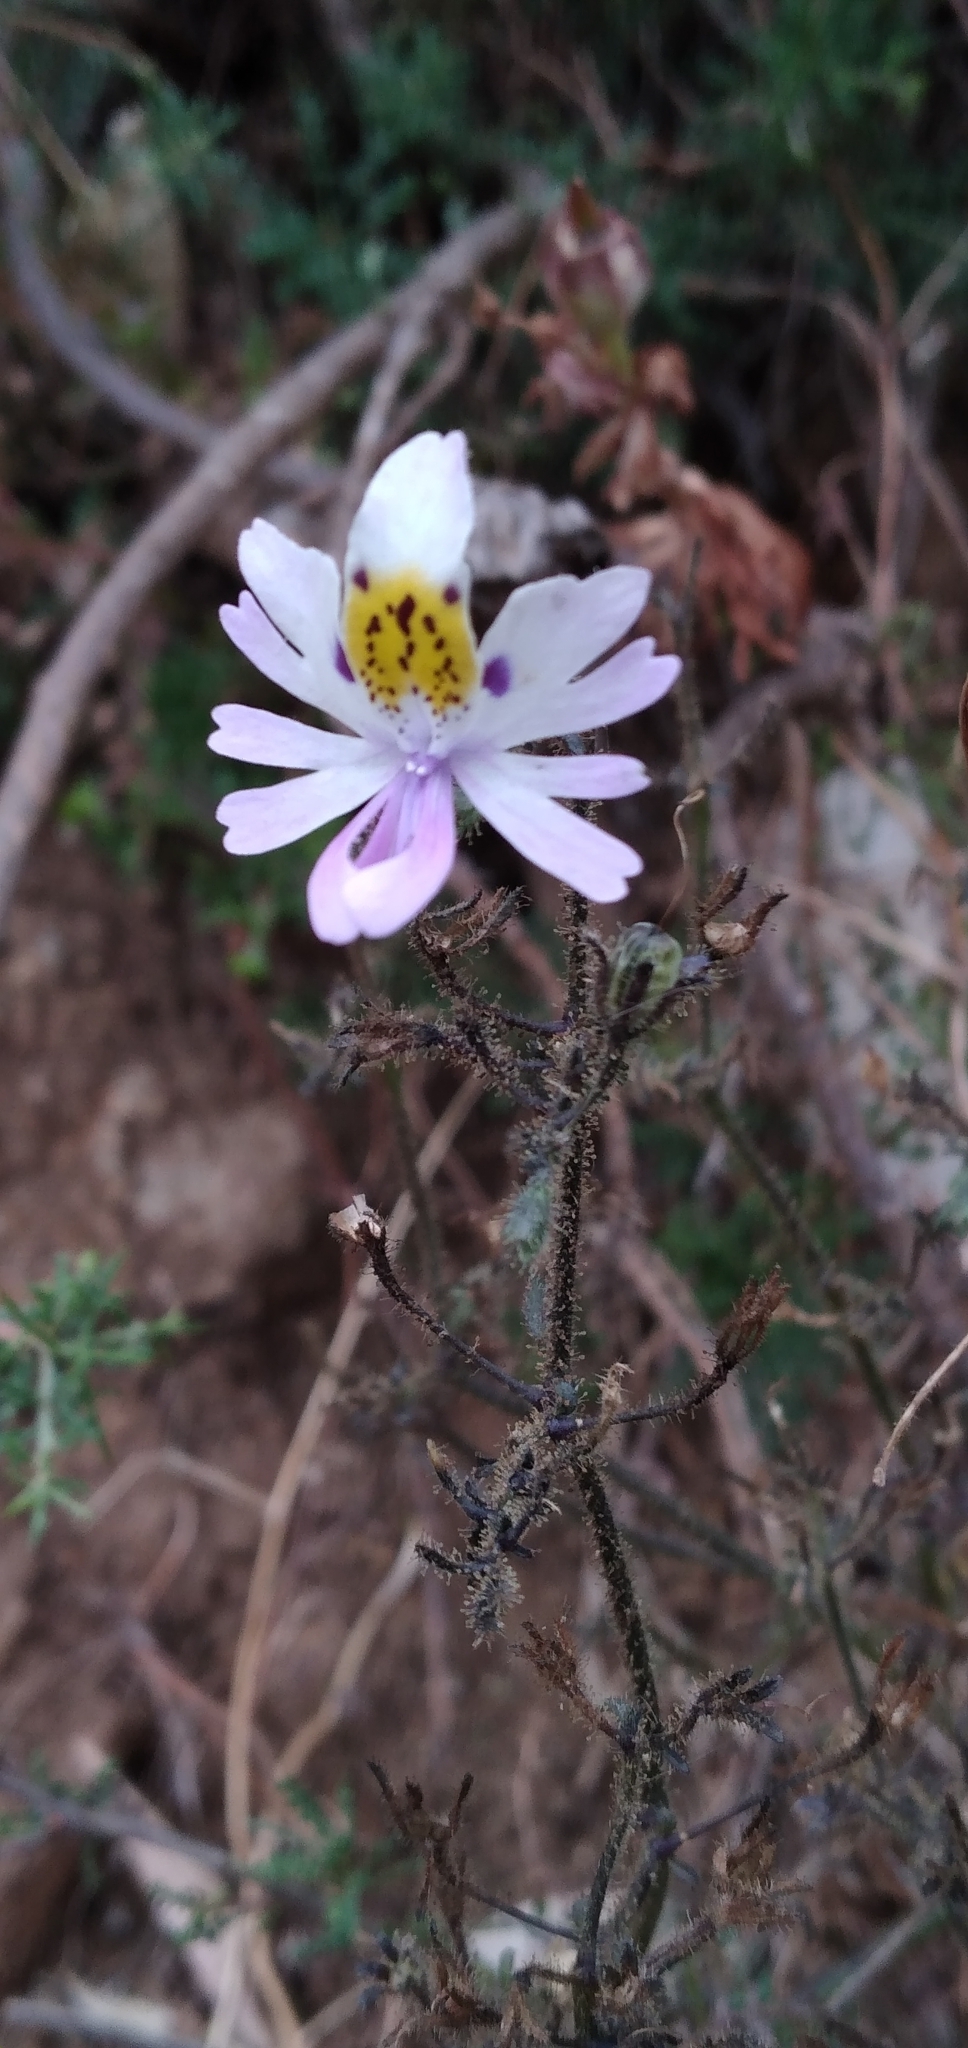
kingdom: Plantae
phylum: Tracheophyta
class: Magnoliopsida
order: Solanales
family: Solanaceae
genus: Schizanthus
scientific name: Schizanthus porrigens
